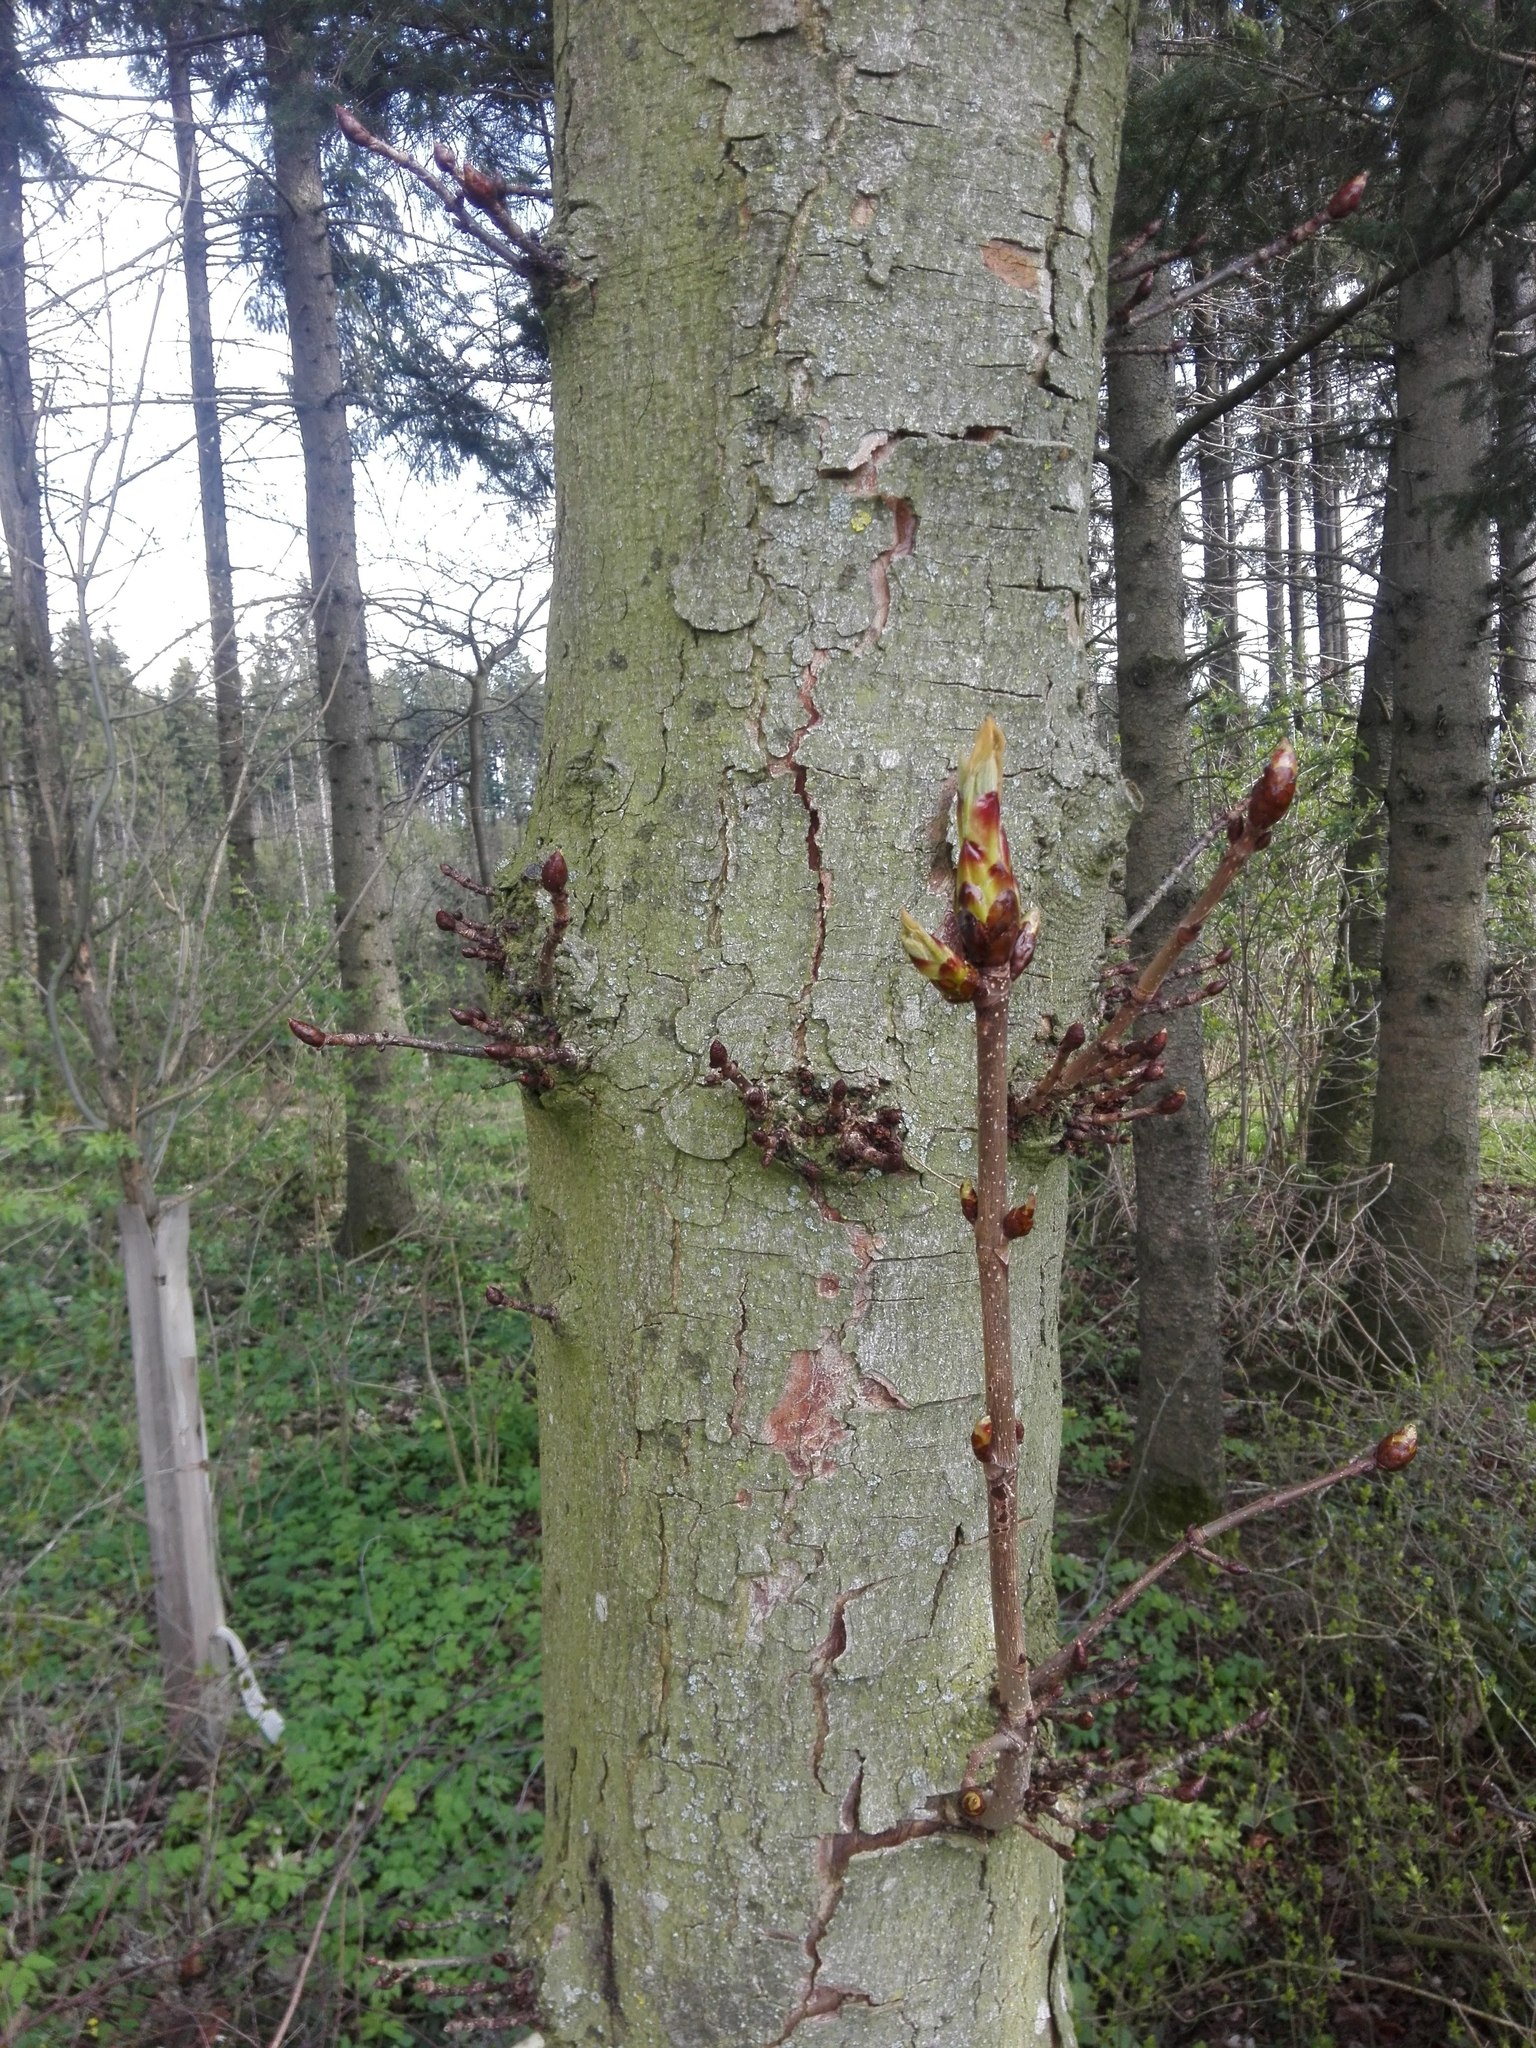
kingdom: Plantae
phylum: Tracheophyta
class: Magnoliopsida
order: Sapindales
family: Sapindaceae
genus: Aesculus
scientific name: Aesculus hippocastanum
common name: Horse-chestnut
